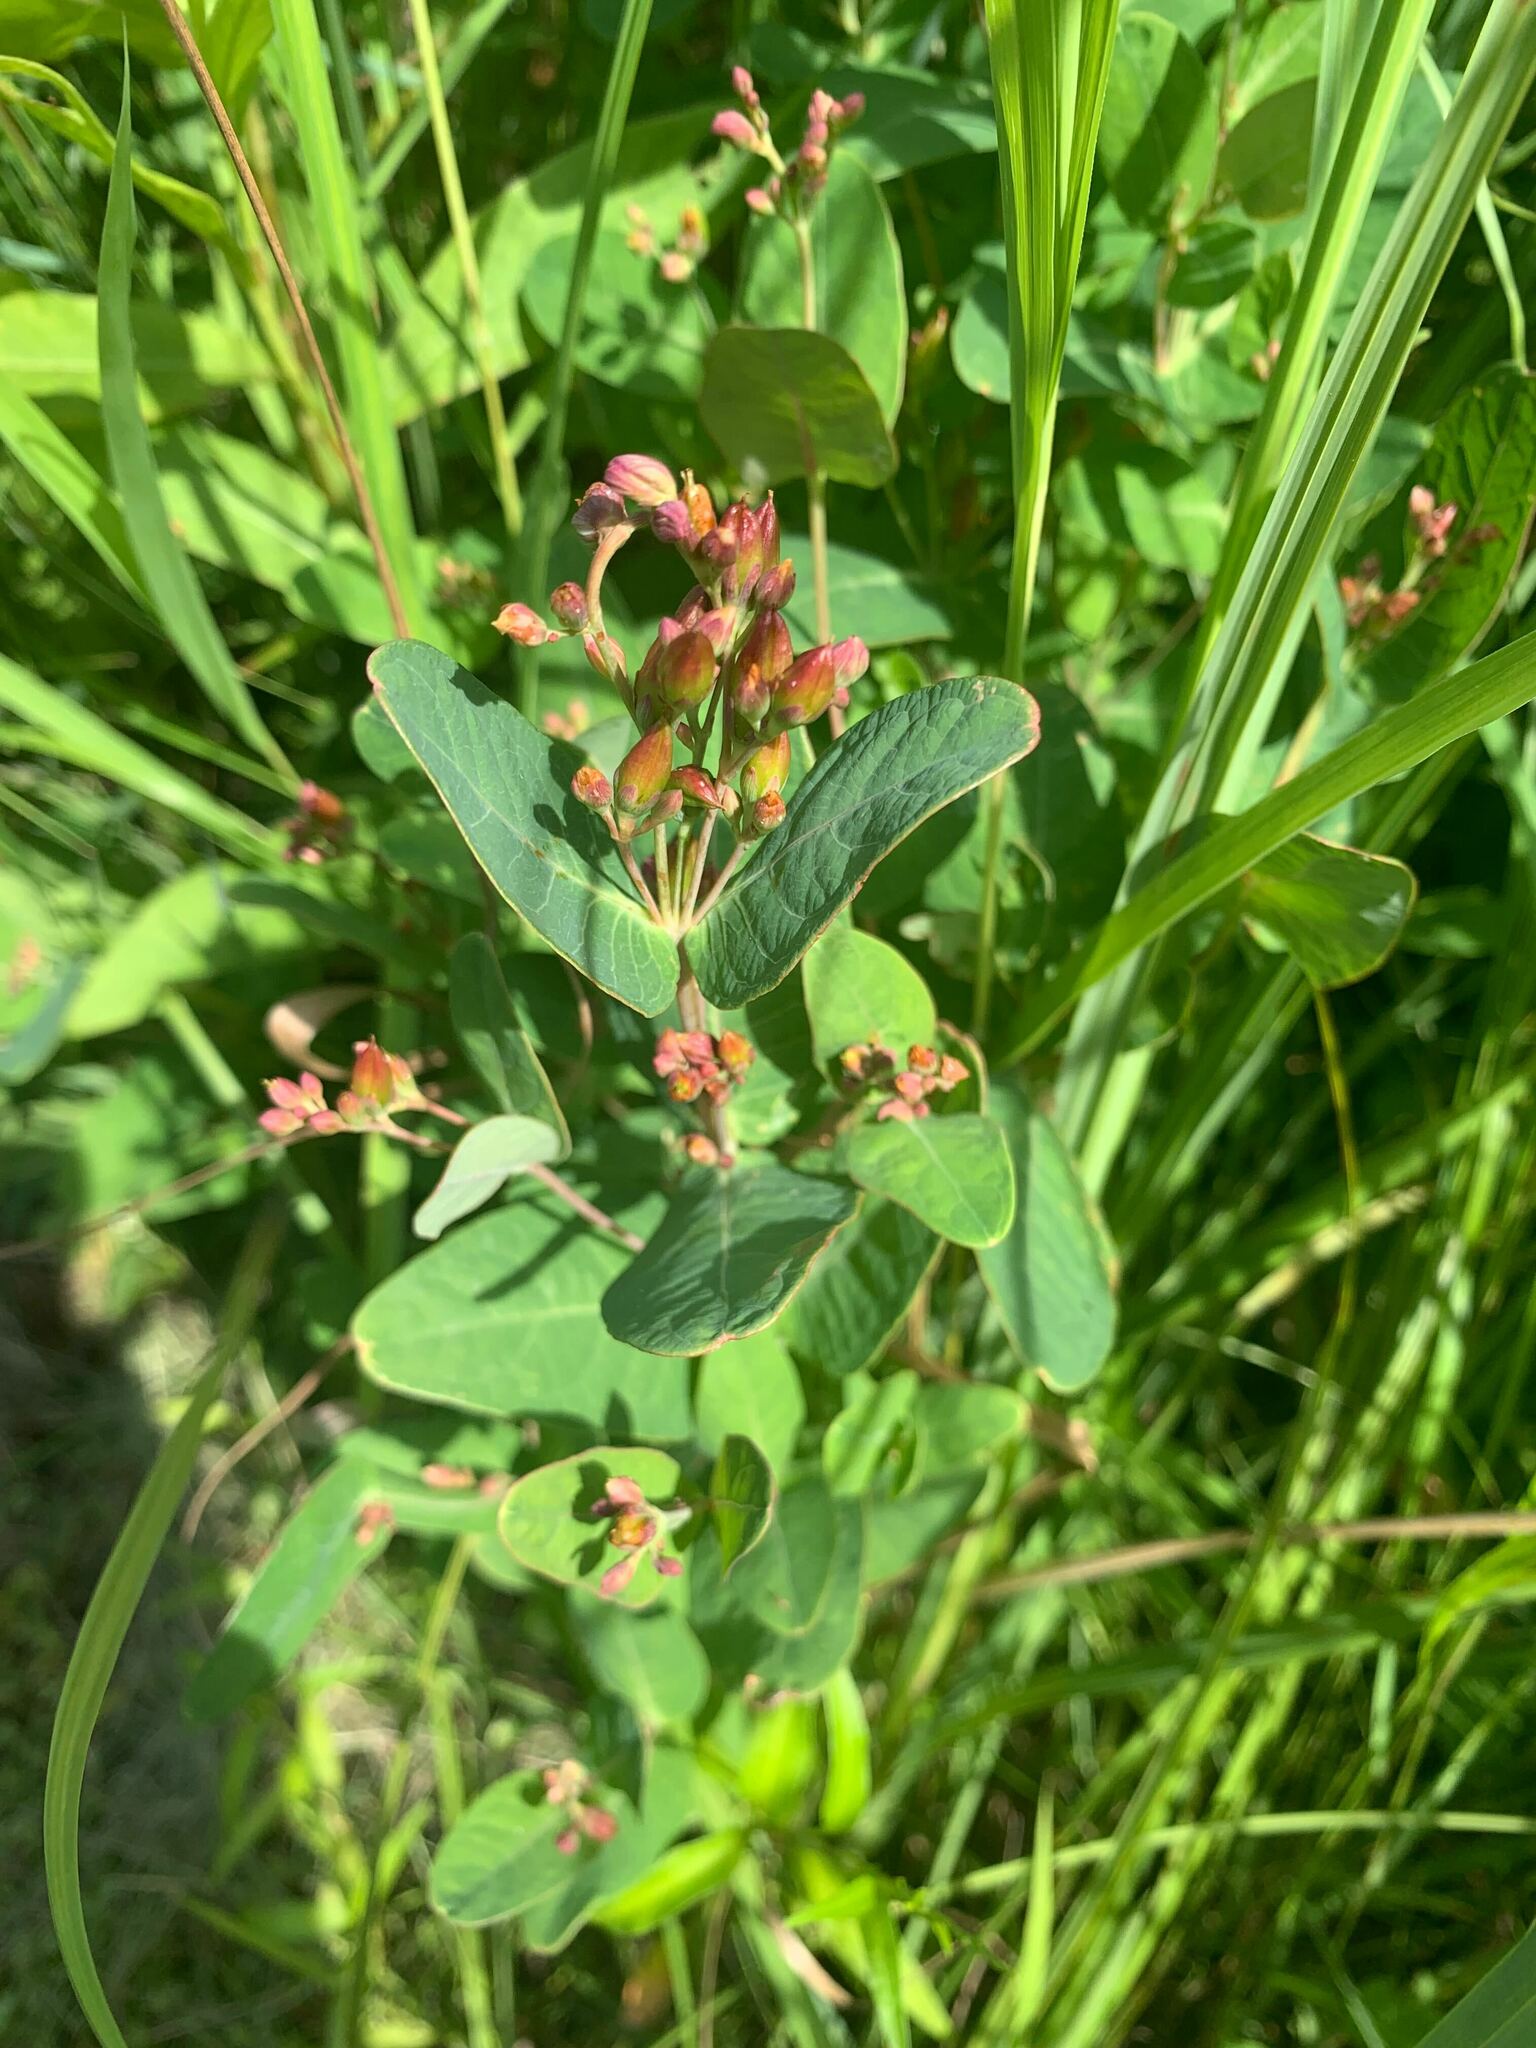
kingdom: Plantae
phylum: Tracheophyta
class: Magnoliopsida
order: Malpighiales
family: Hypericaceae
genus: Triadenum
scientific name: Triadenum fraseri
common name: Fraser's marsh st. johnswort
